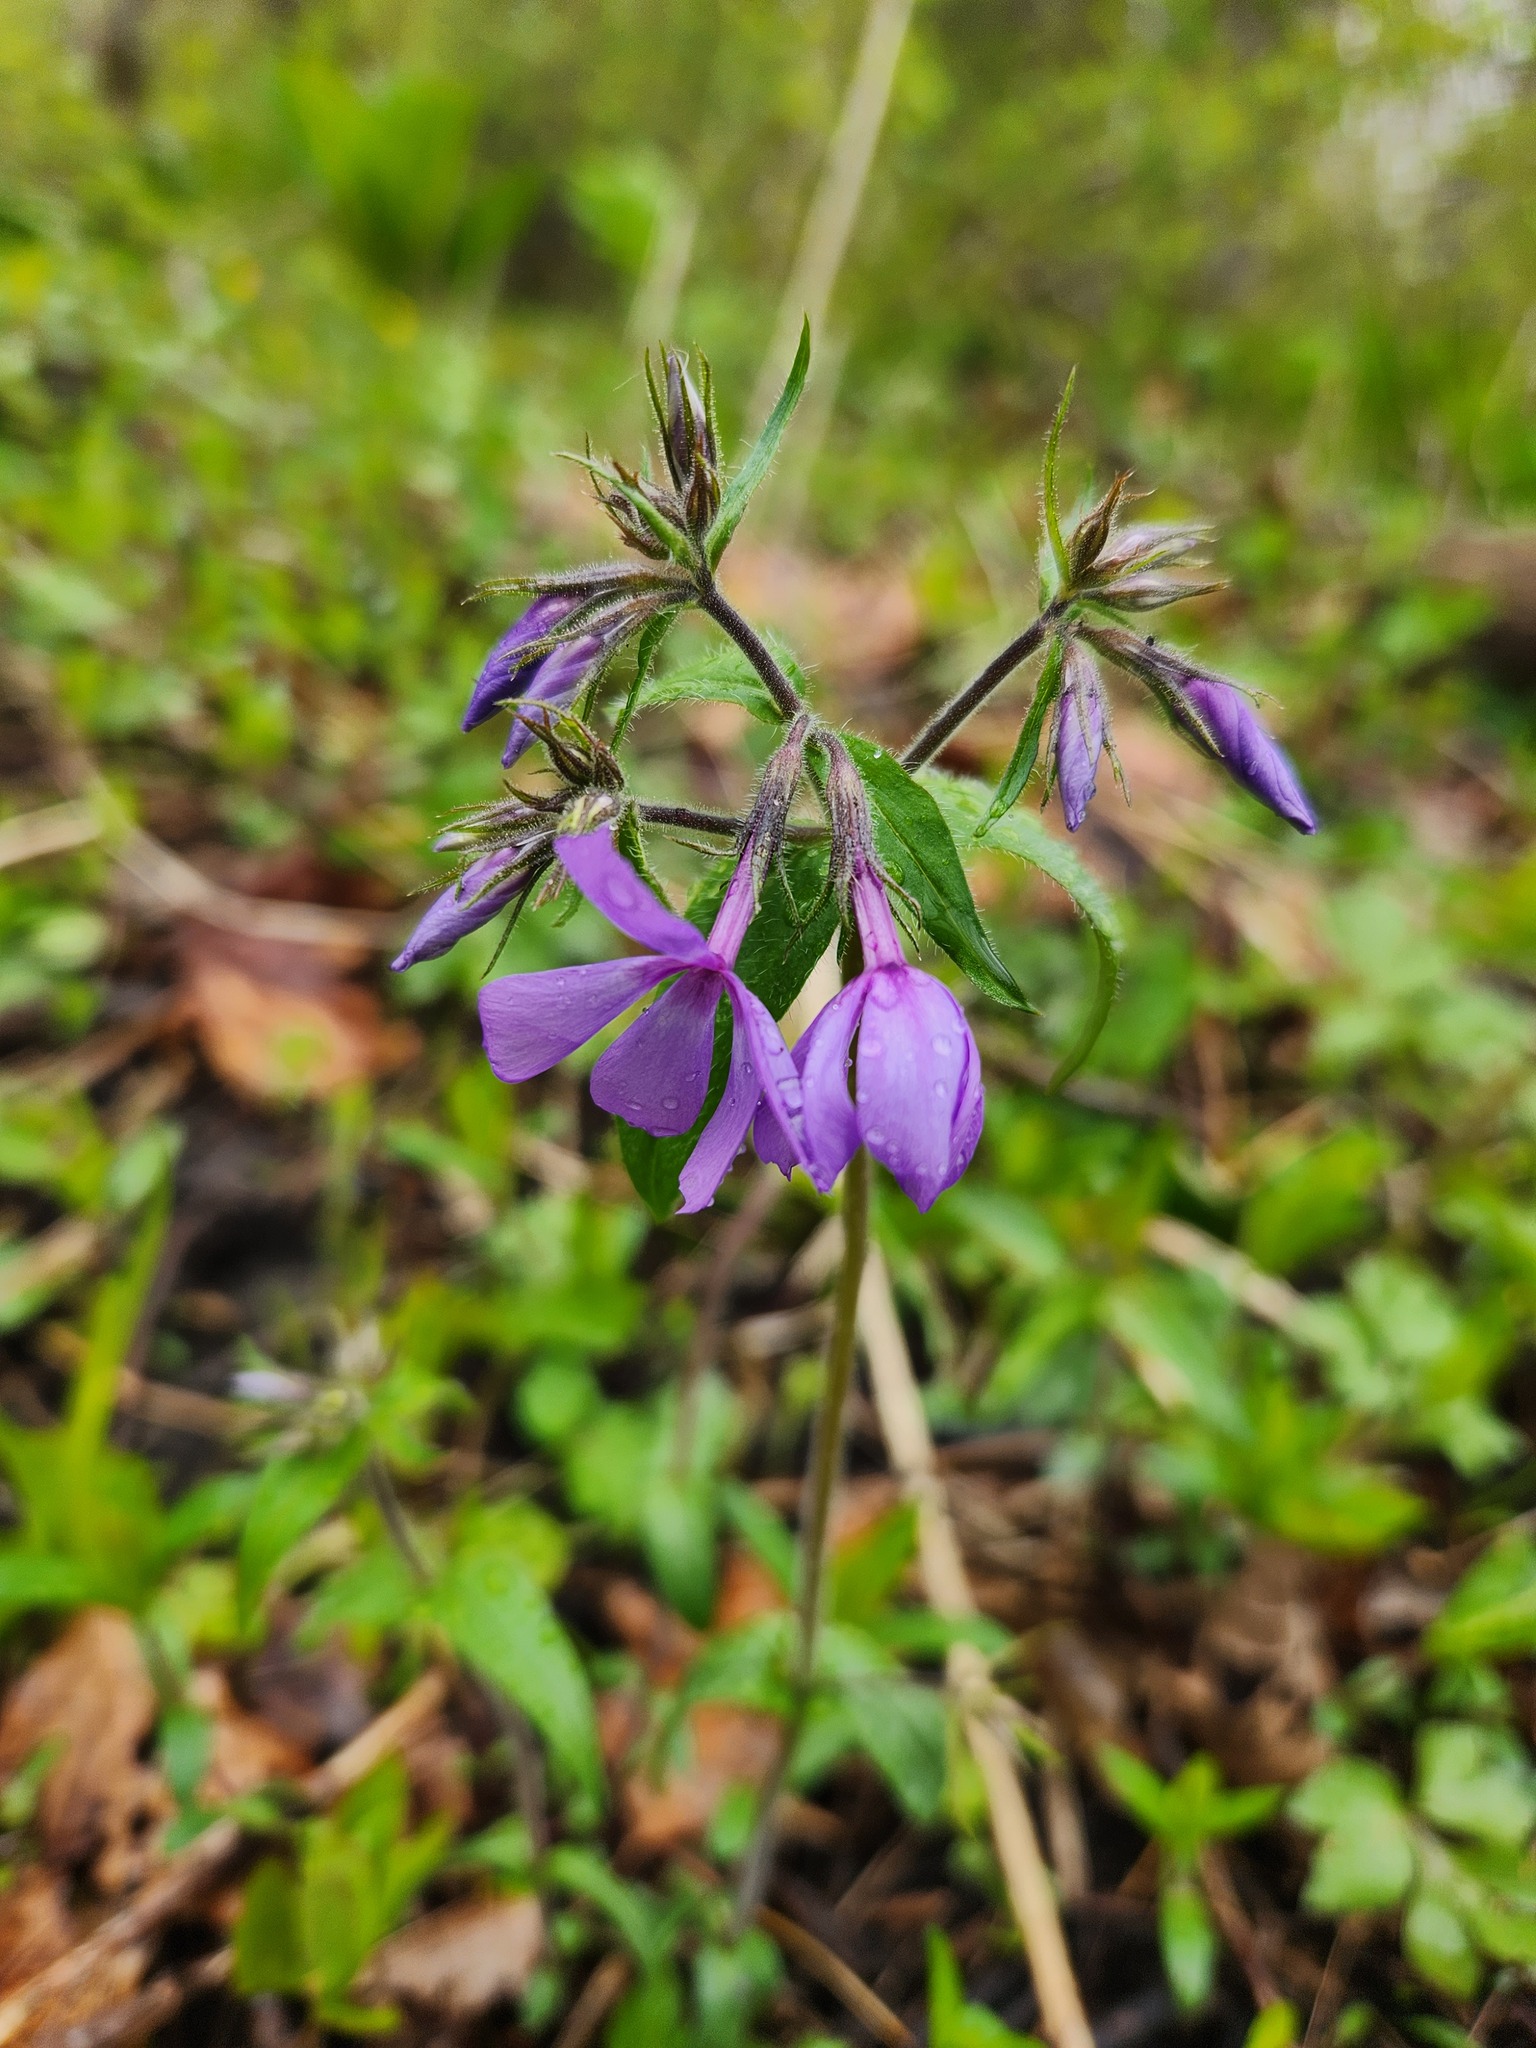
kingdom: Plantae
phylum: Tracheophyta
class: Magnoliopsida
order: Ericales
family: Polemoniaceae
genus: Phlox
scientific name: Phlox divaricata
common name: Blue phlox
